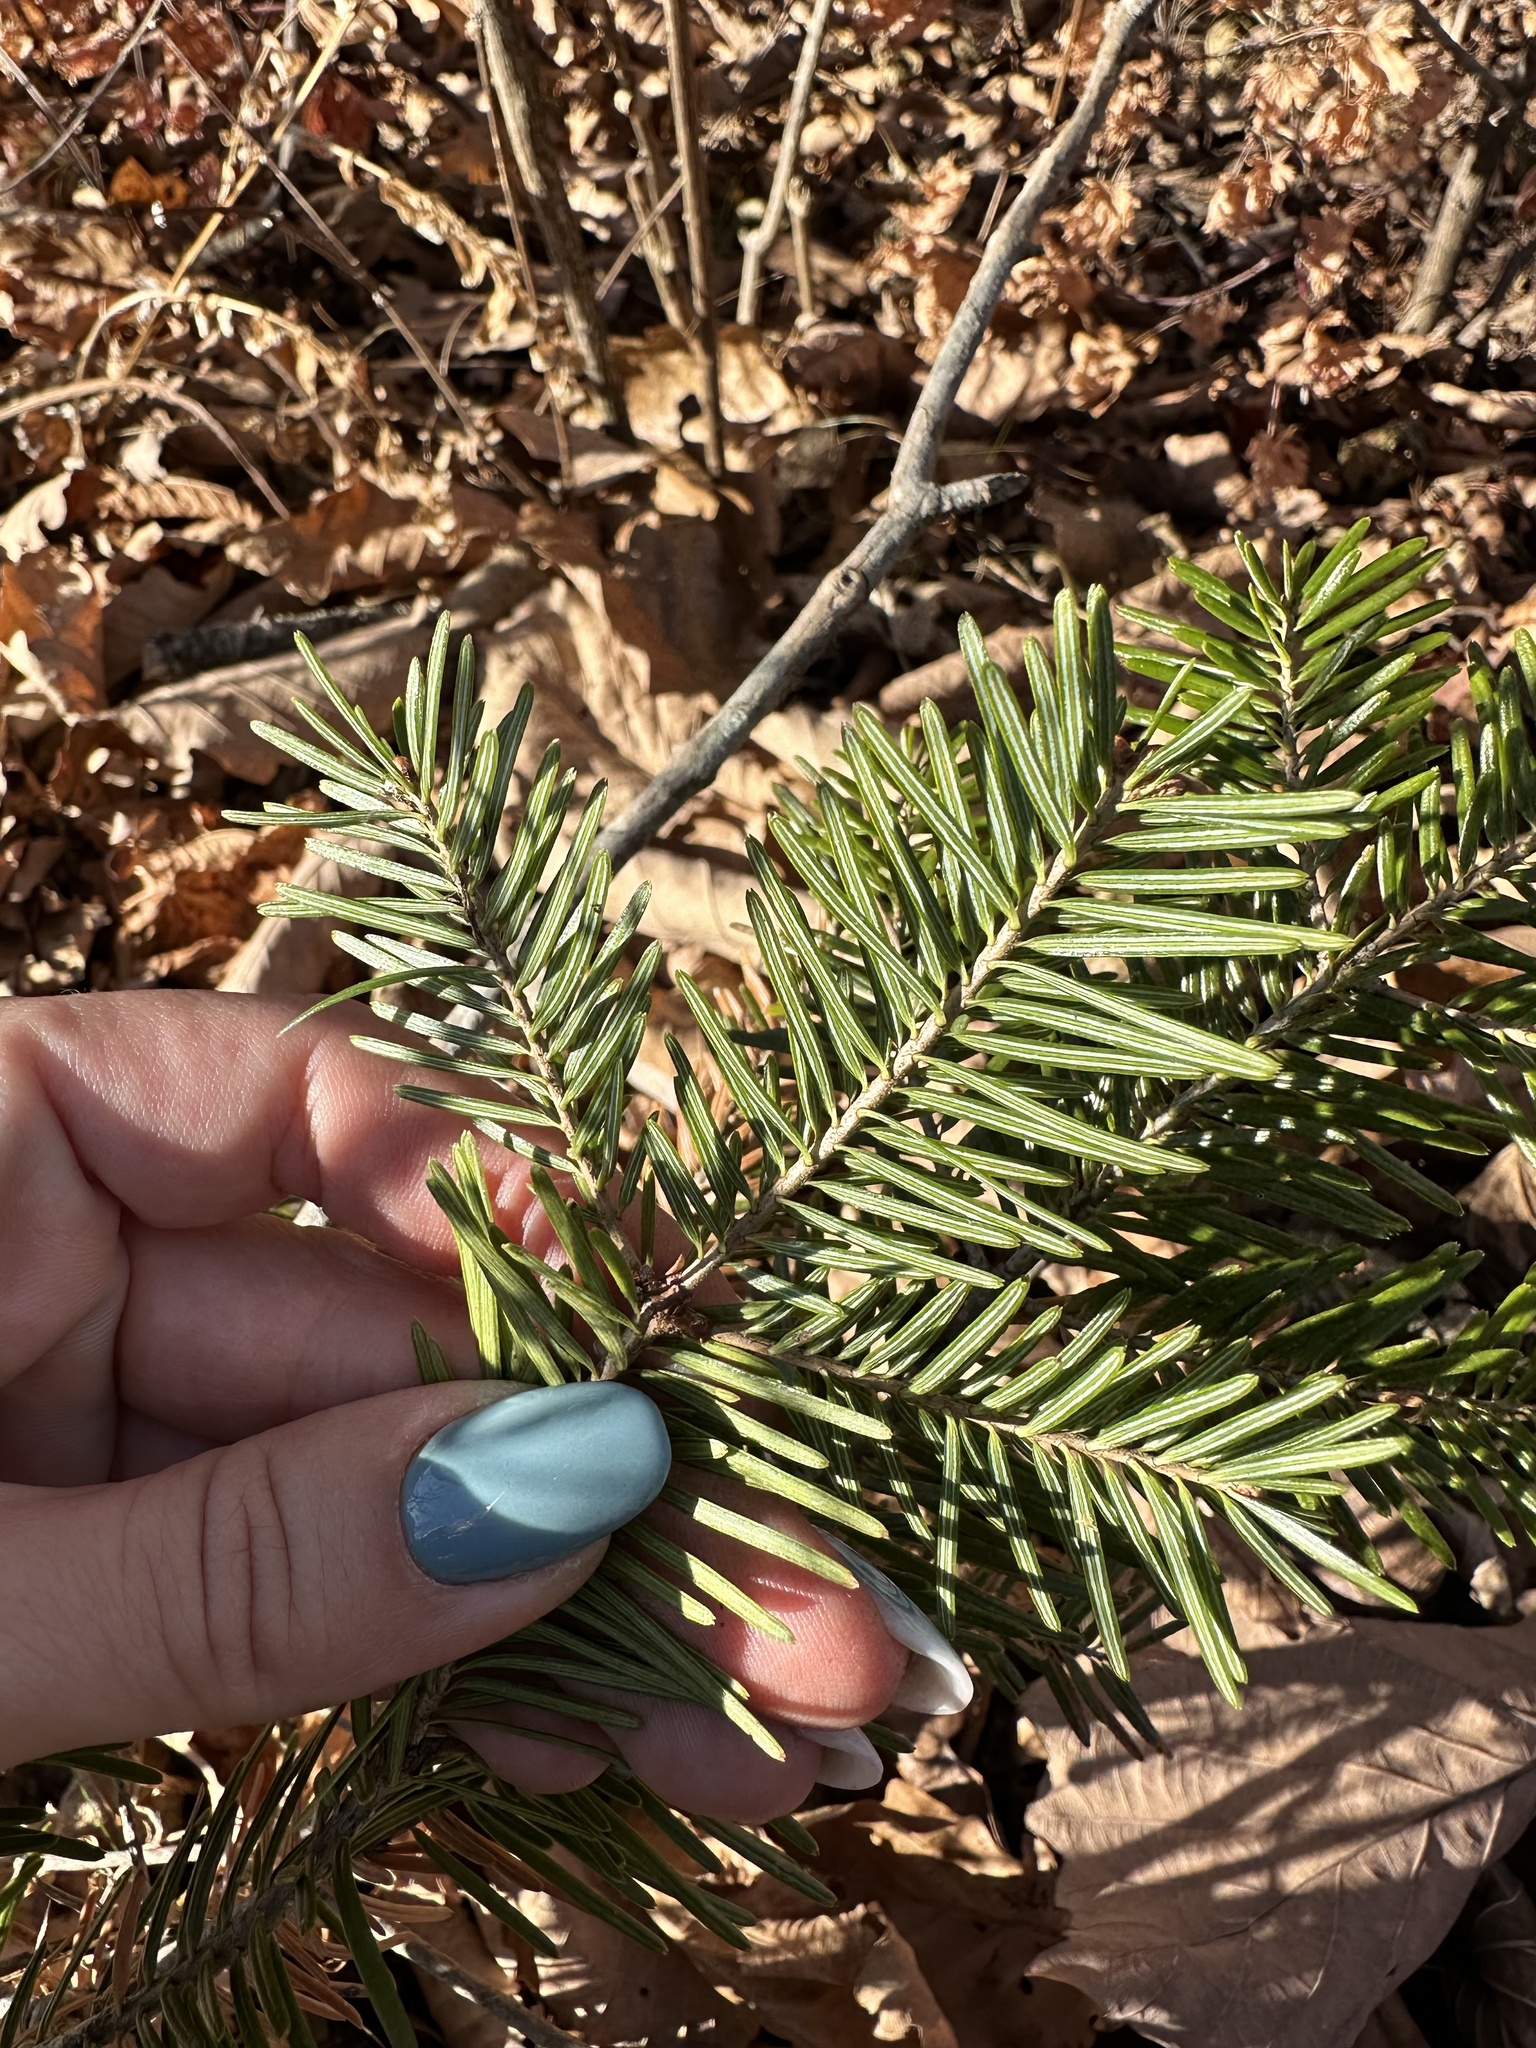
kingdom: Plantae
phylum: Tracheophyta
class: Pinopsida
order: Pinales
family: Pinaceae
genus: Abies
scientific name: Abies nephrolepis
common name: Hinggan fir
